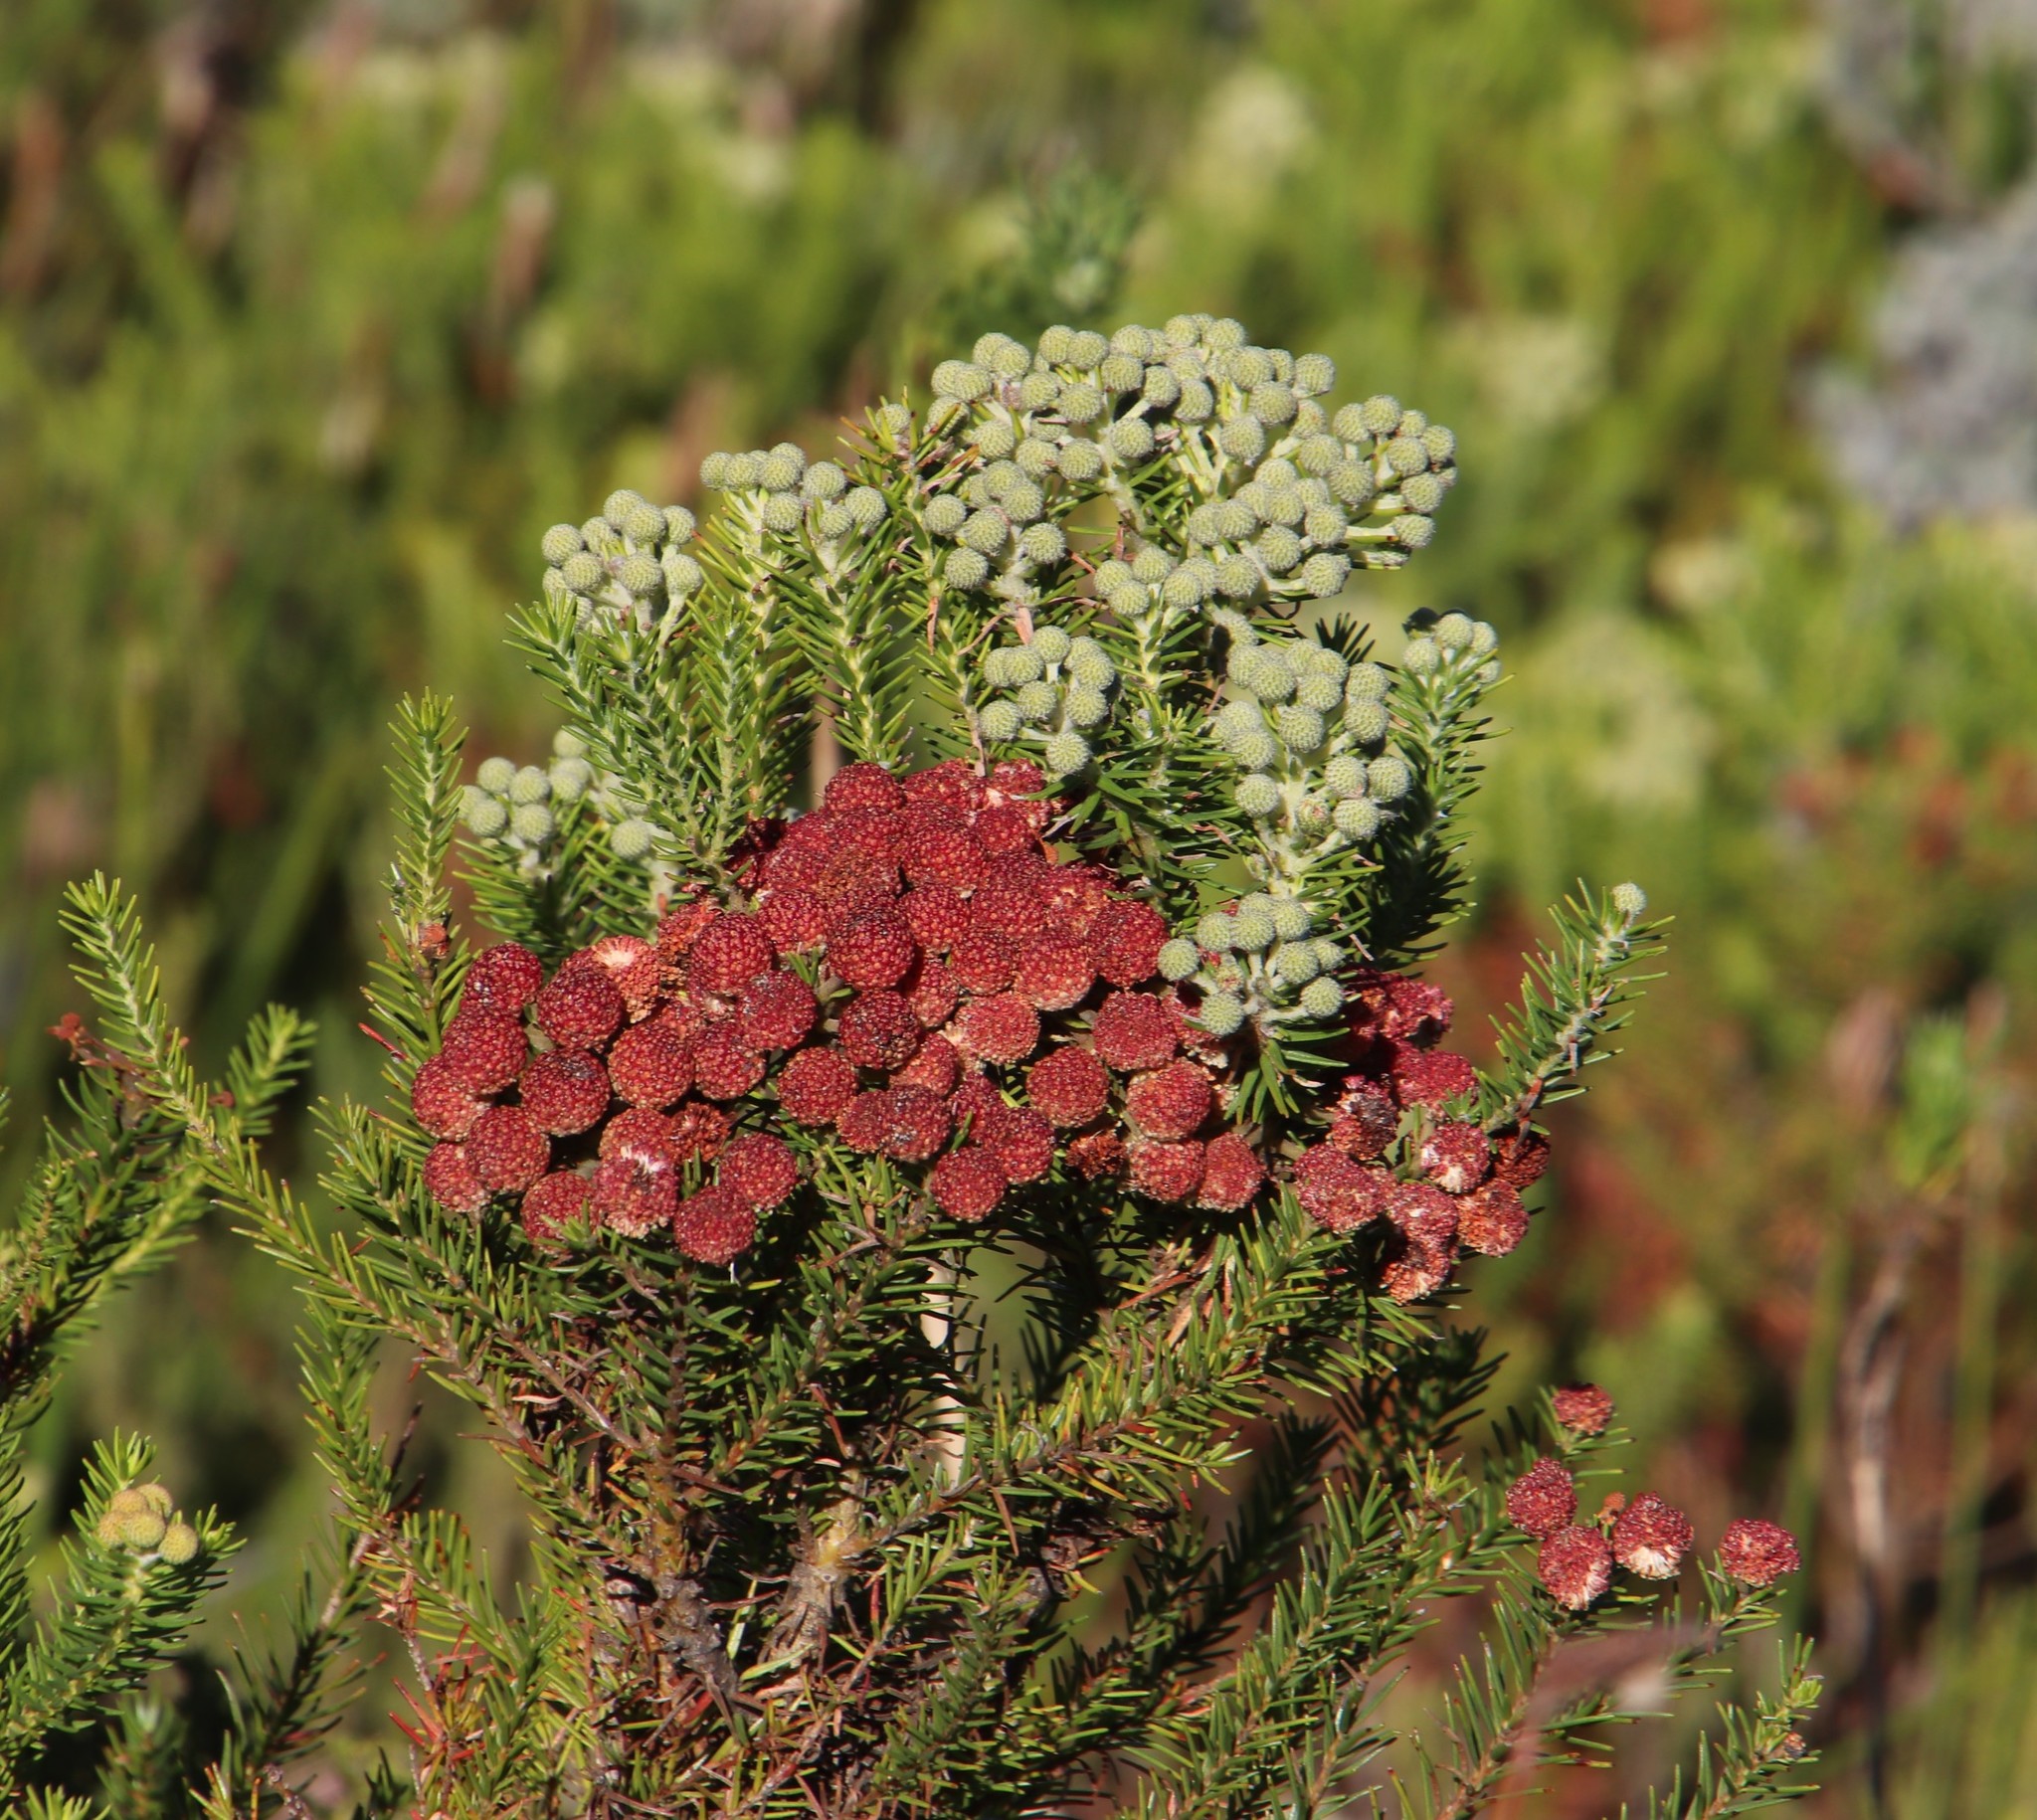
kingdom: Plantae
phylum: Tracheophyta
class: Magnoliopsida
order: Bruniales
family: Bruniaceae
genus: Berzelia
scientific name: Berzelia intermedia
